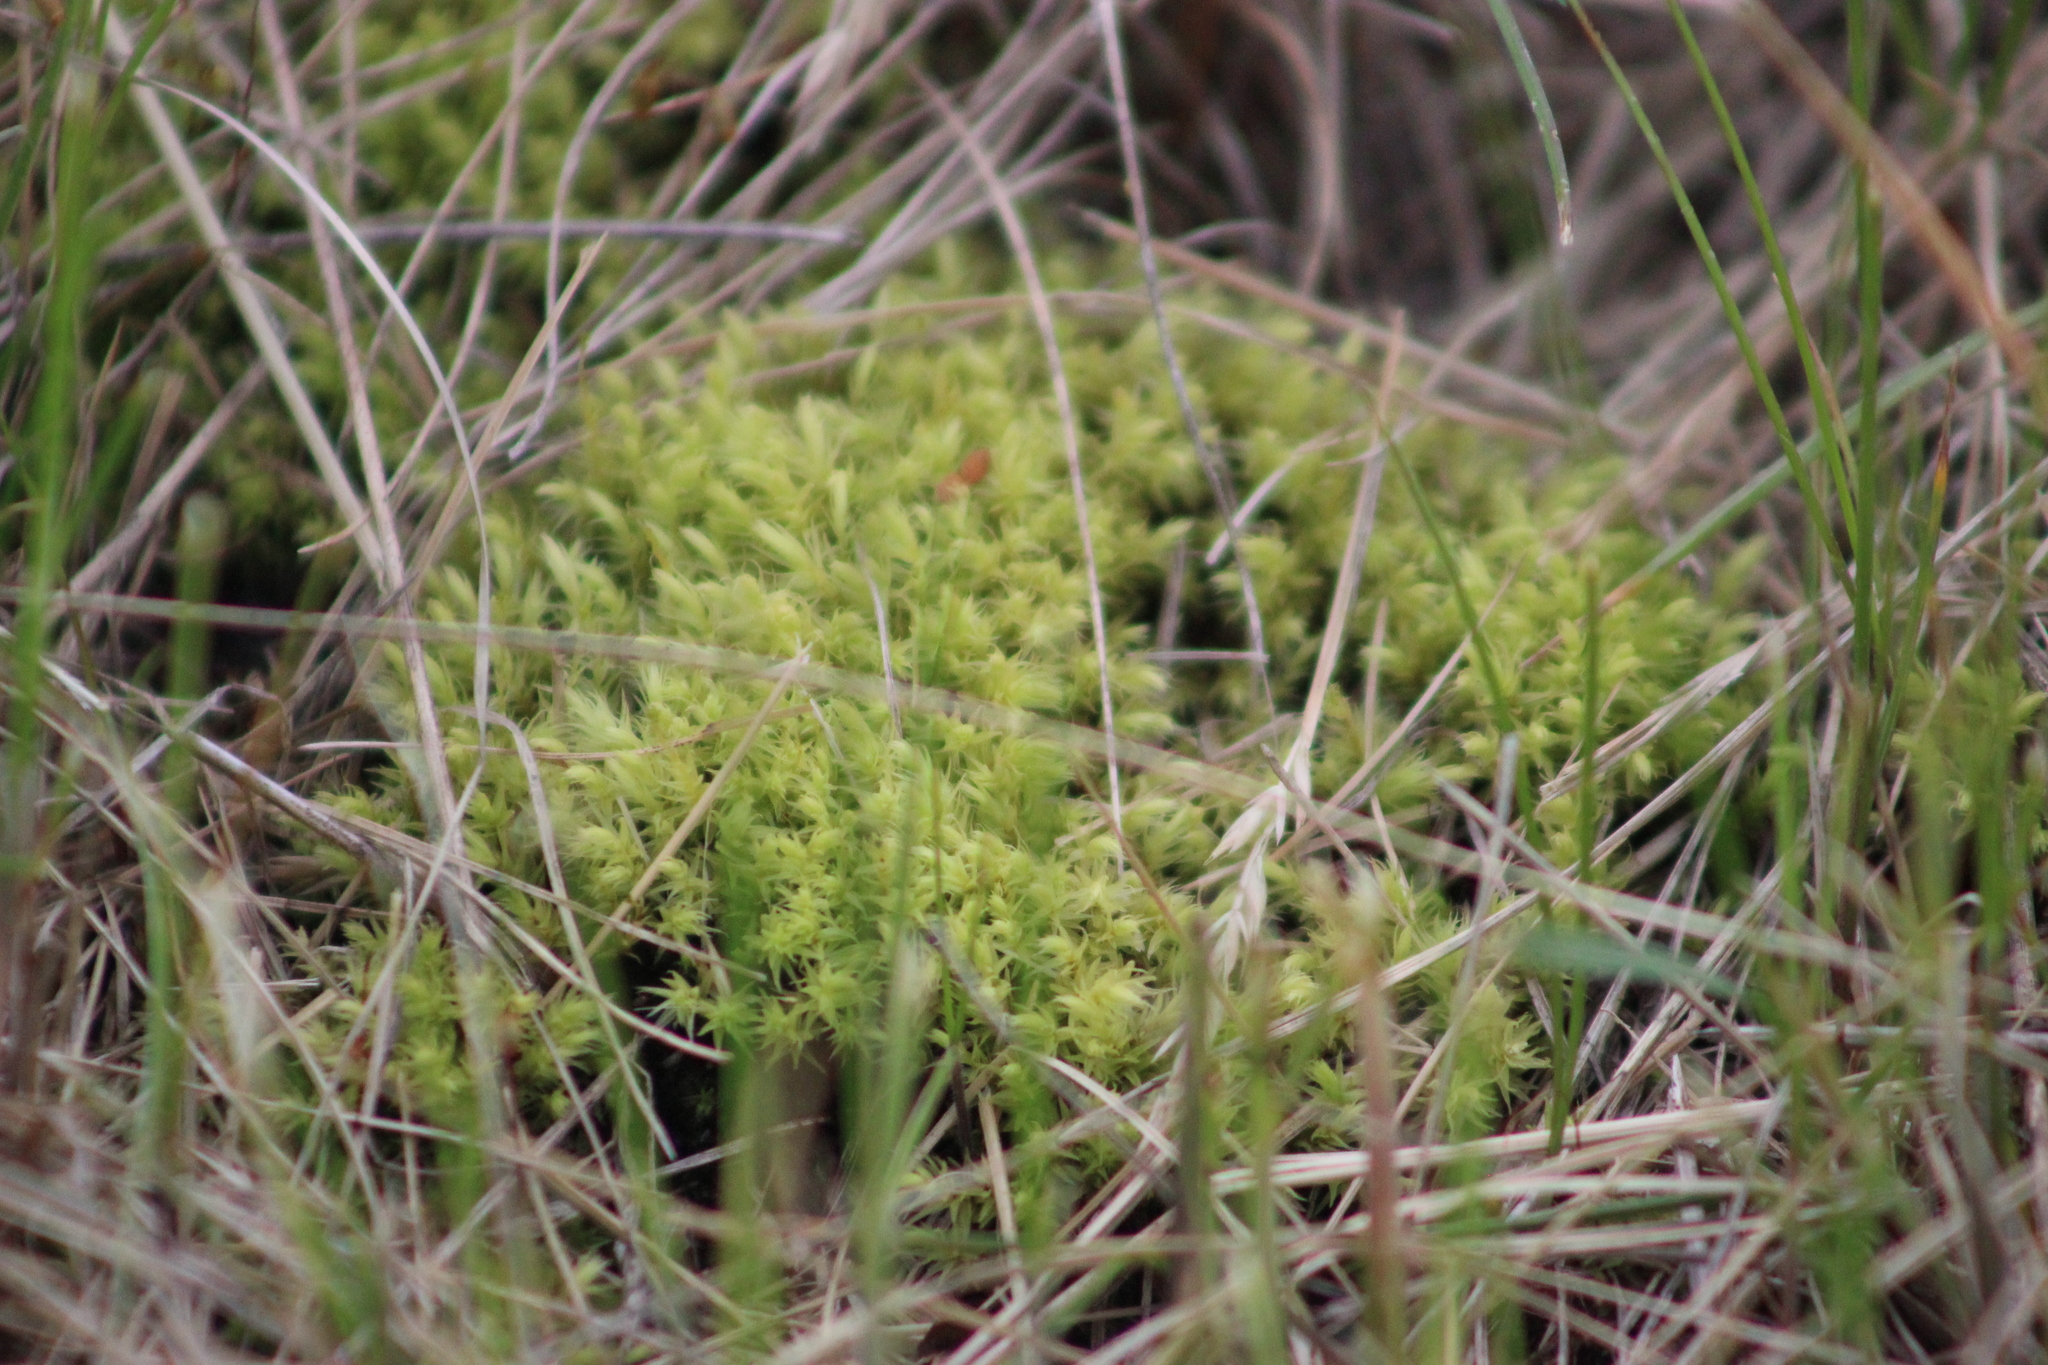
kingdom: Plantae
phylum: Bryophyta
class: Bryopsida
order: Aulacomniales
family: Aulacomniaceae
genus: Aulacomnium
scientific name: Aulacomnium palustre
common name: Bog groove-moss
